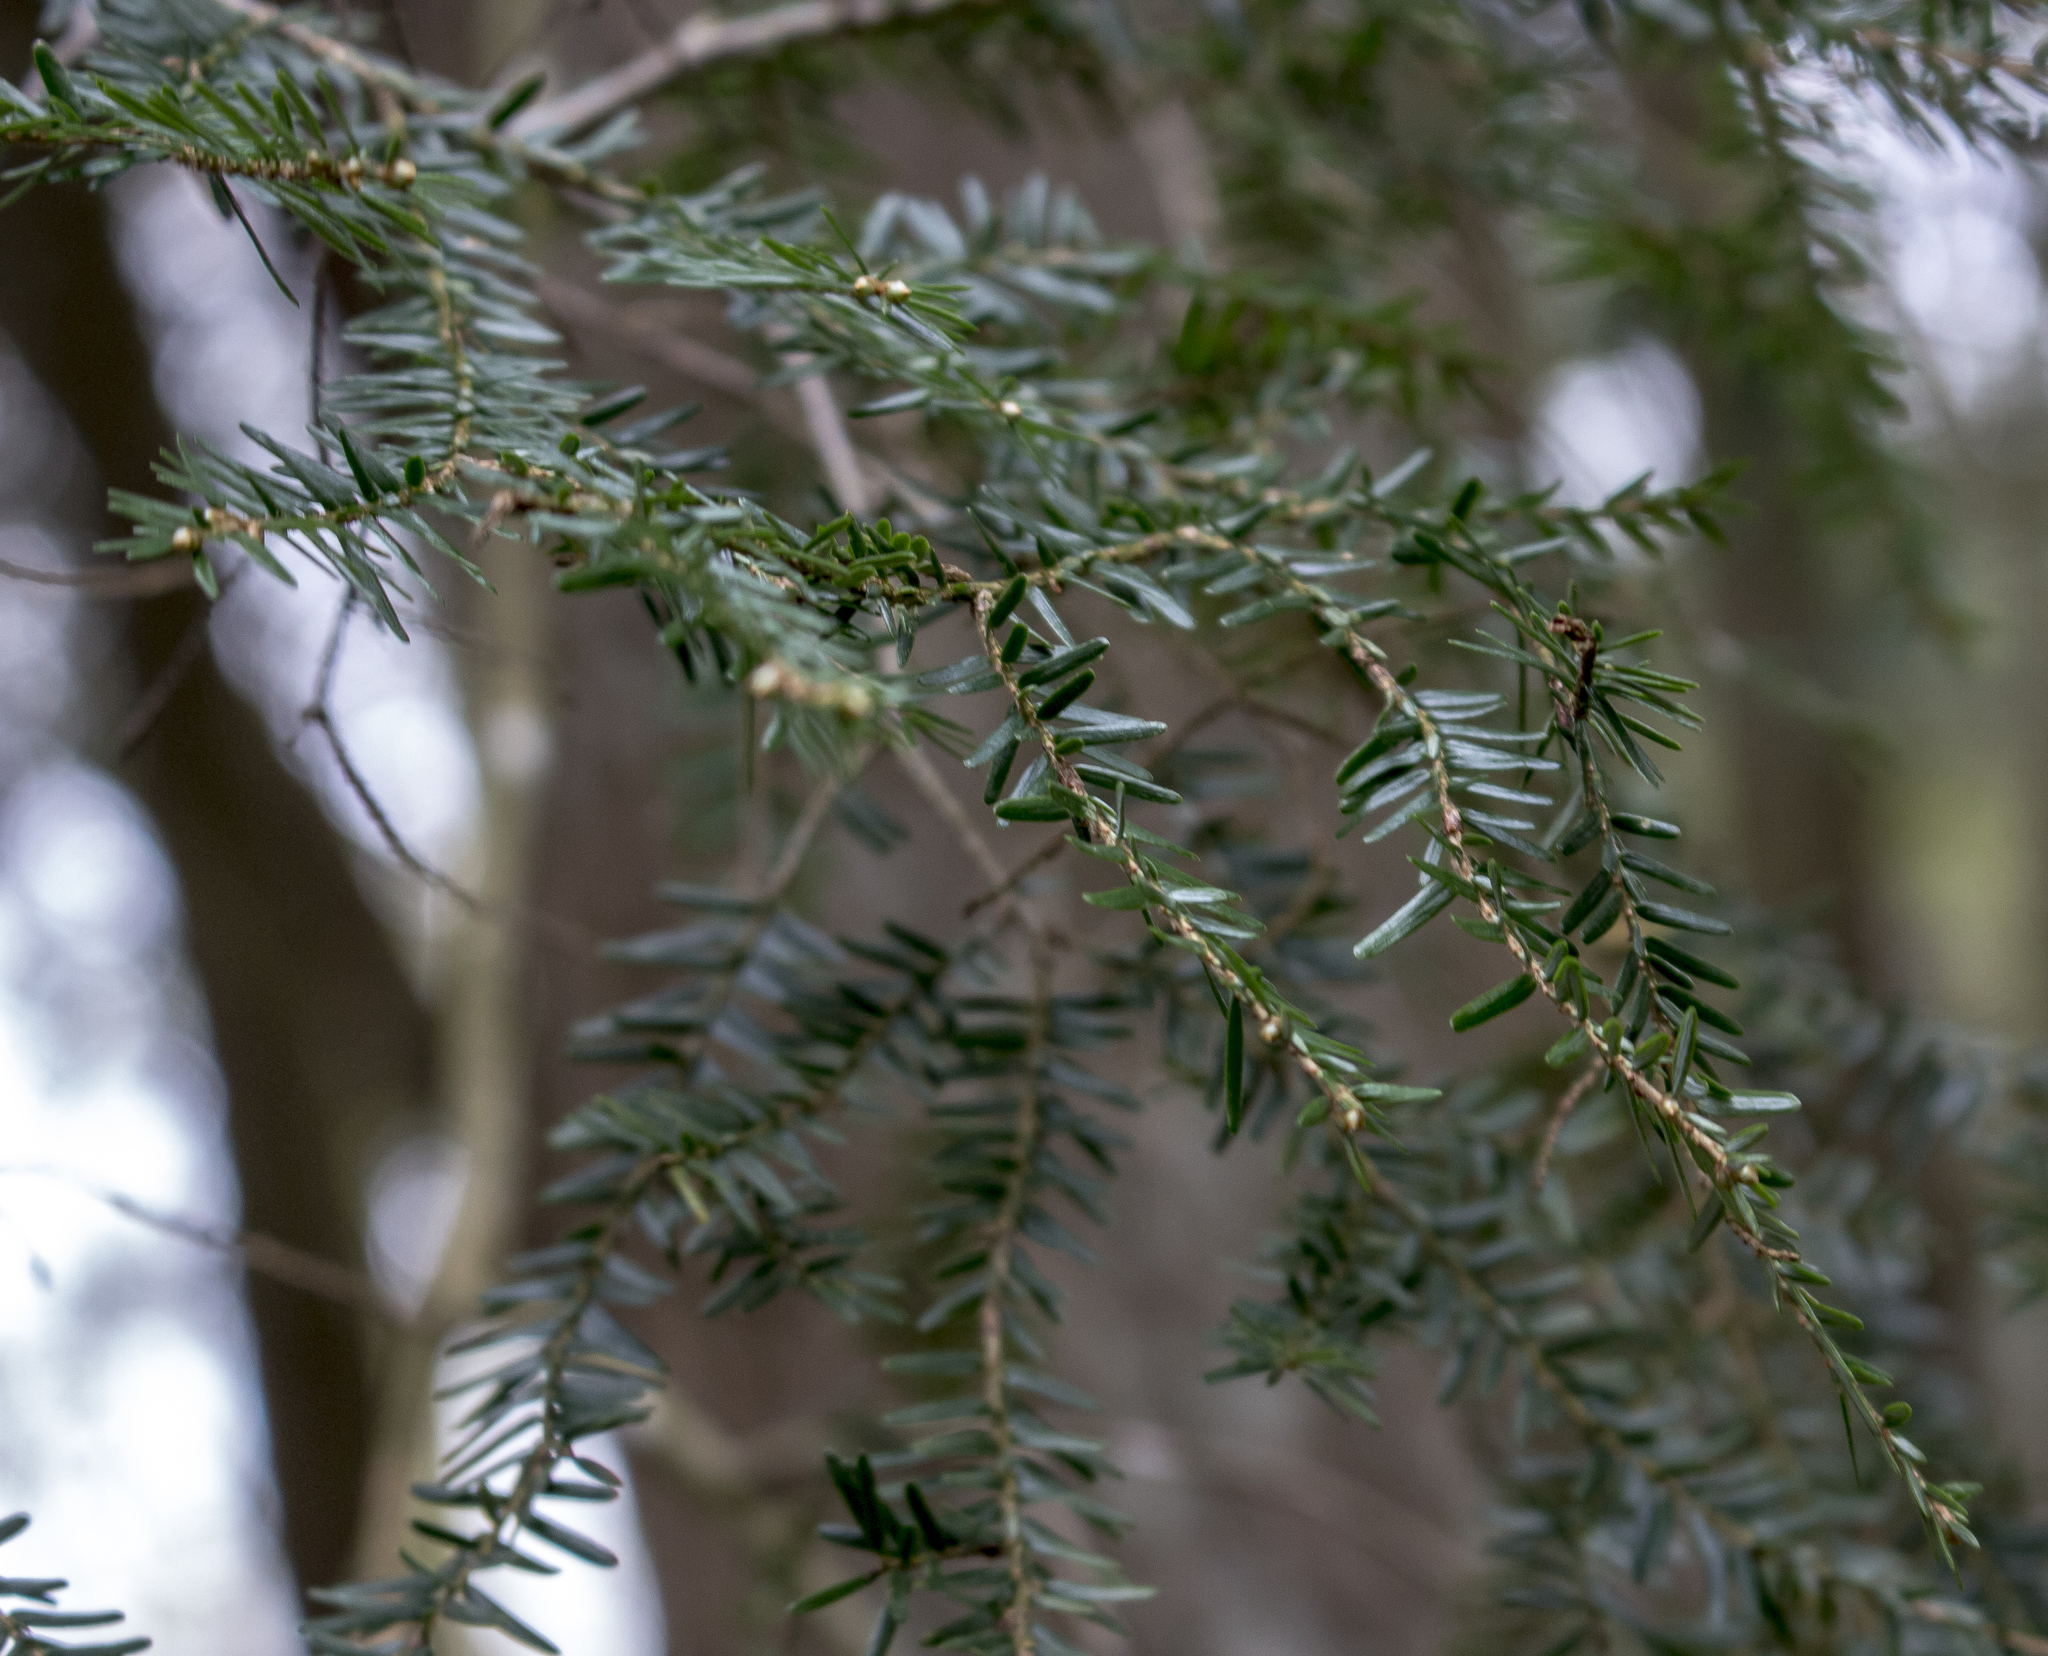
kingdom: Plantae
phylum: Tracheophyta
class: Pinopsida
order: Pinales
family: Pinaceae
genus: Tsuga
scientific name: Tsuga canadensis
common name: Eastern hemlock
